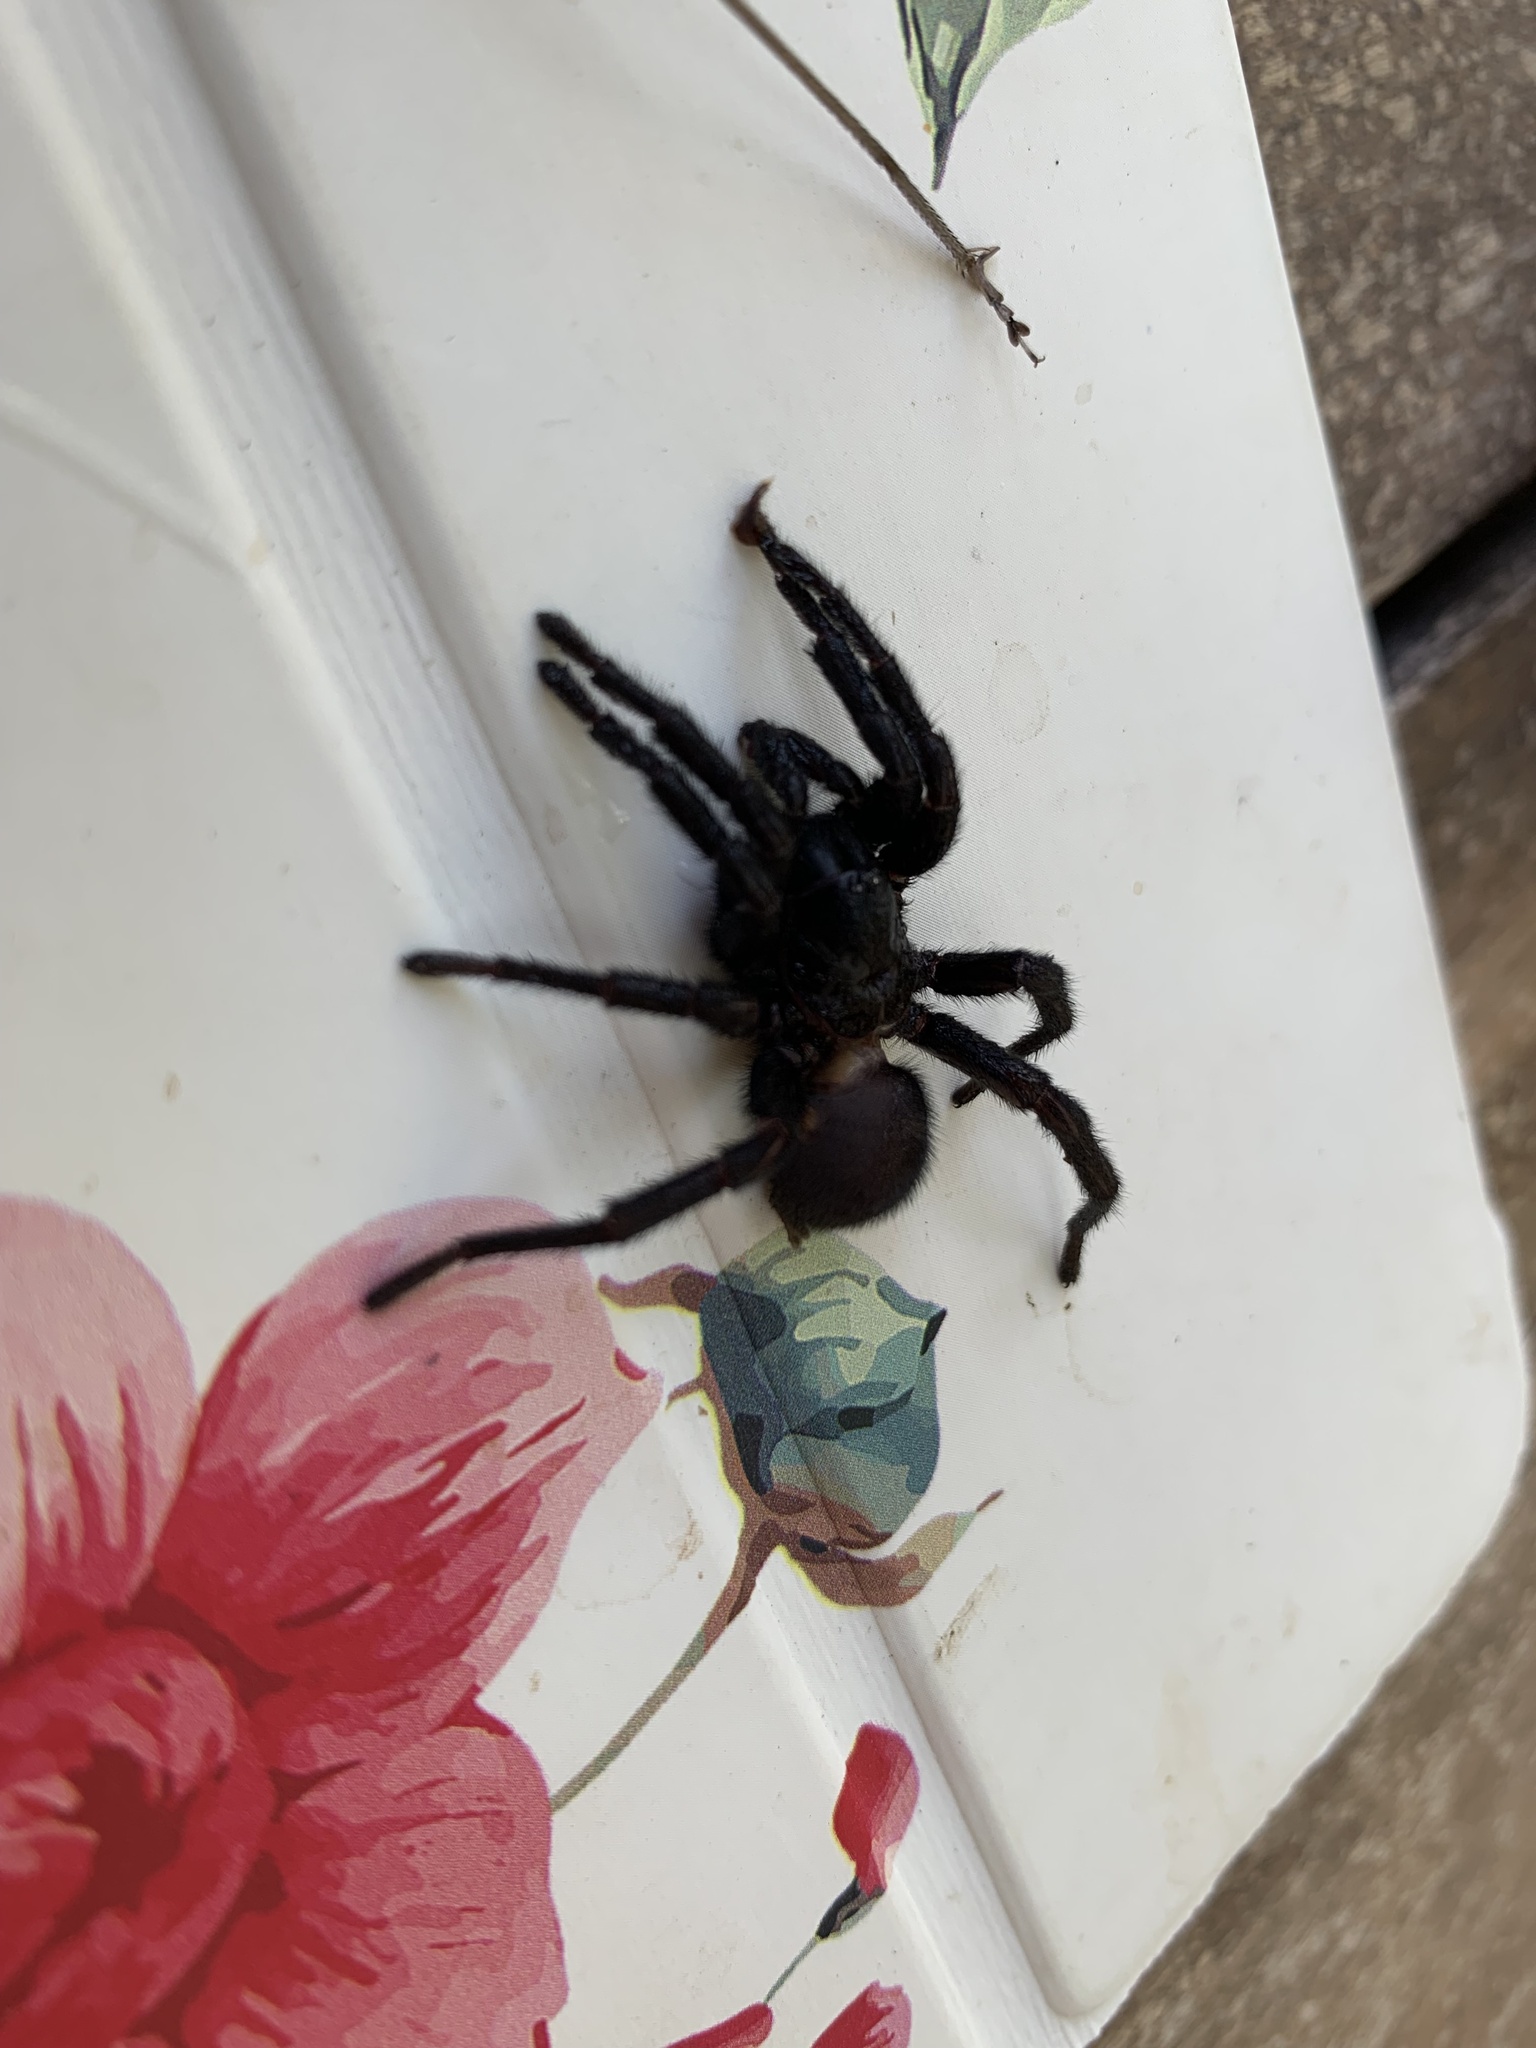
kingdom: Animalia
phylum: Arthropoda
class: Arachnida
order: Araneae
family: Nemesiidae
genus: Amblyocarenum
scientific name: Amblyocarenum walckenaeri
